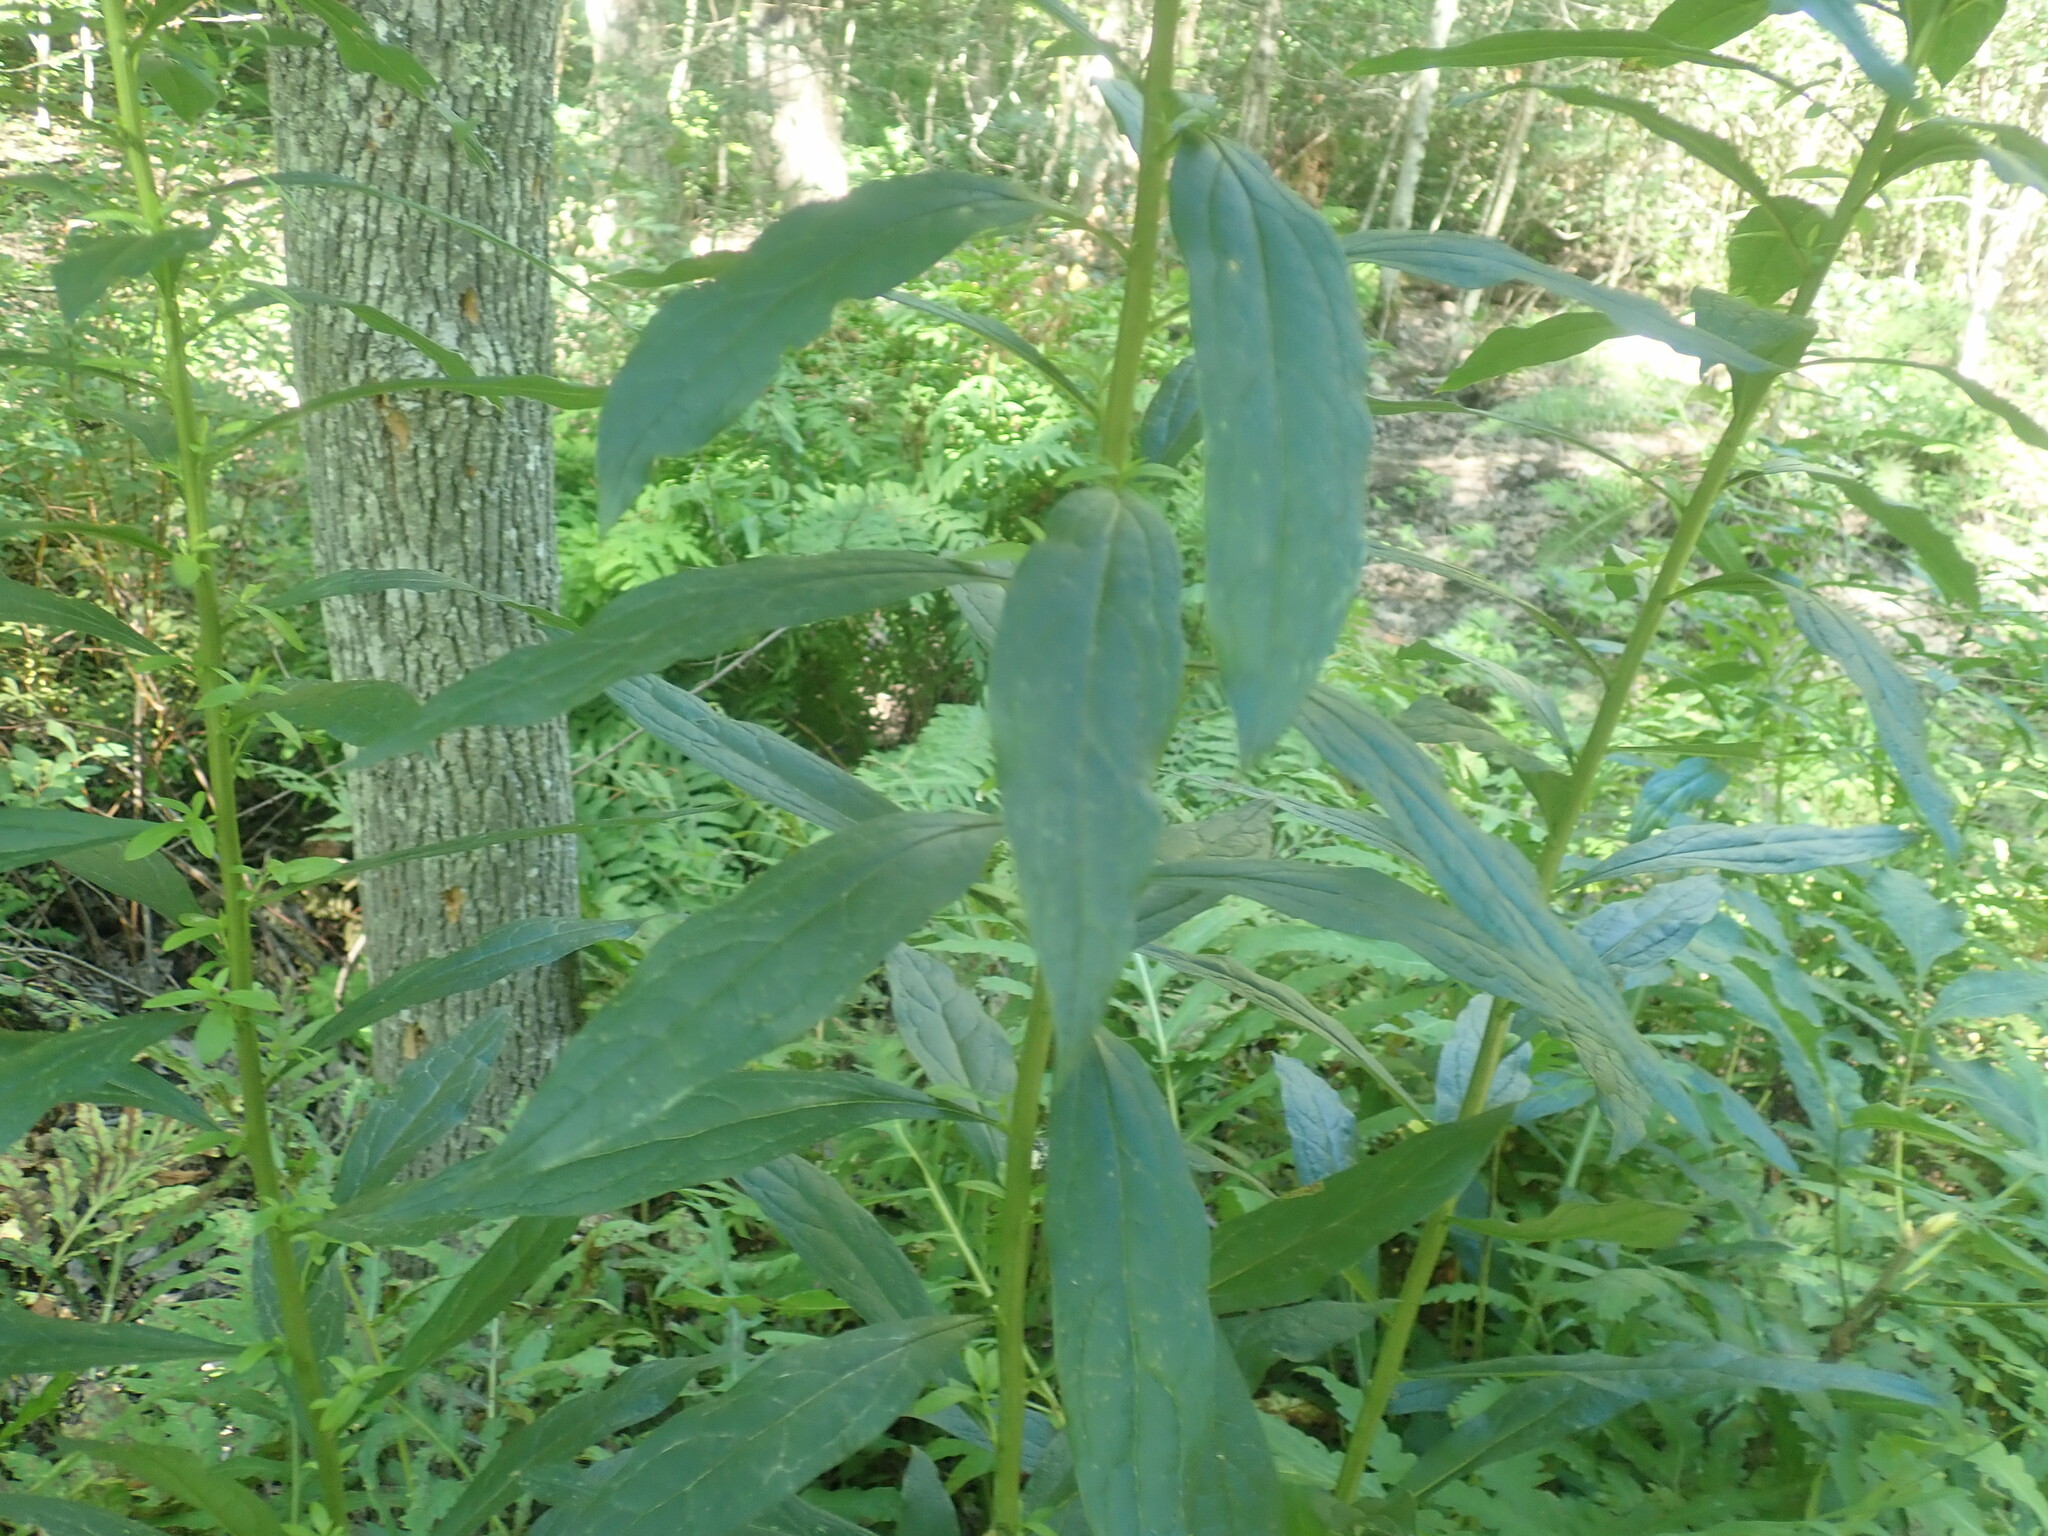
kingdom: Plantae
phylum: Tracheophyta
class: Magnoliopsida
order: Asterales
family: Asteraceae
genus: Doellingeria
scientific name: Doellingeria umbellata
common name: Flat-top white aster
